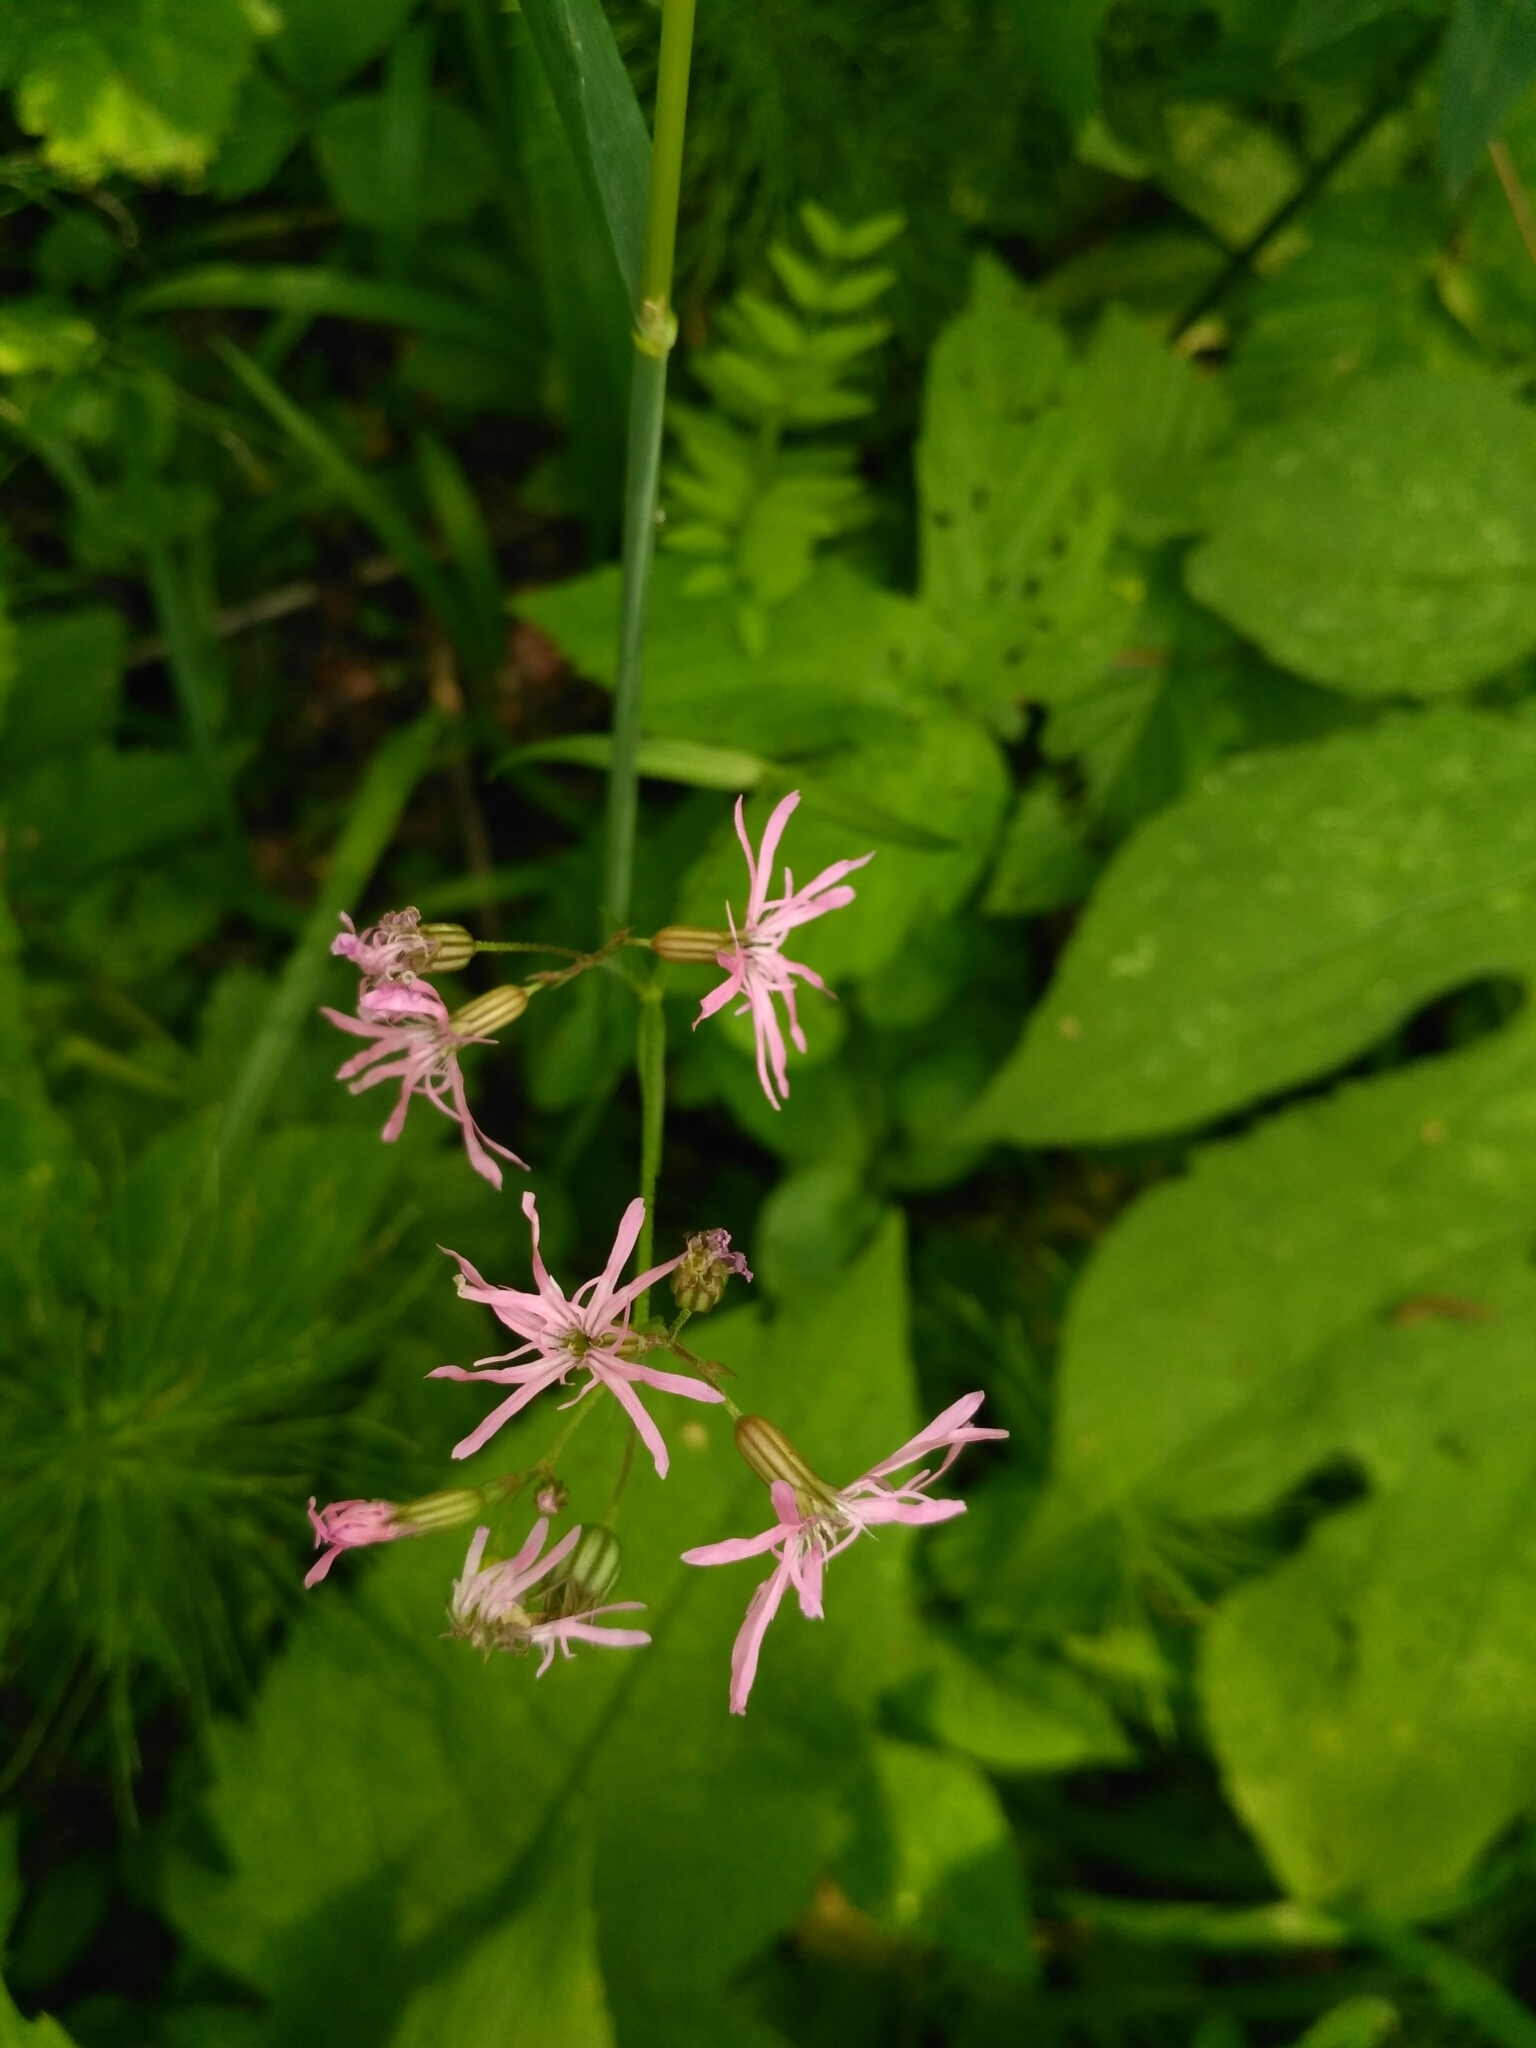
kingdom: Plantae
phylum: Tracheophyta
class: Magnoliopsida
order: Caryophyllales
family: Caryophyllaceae
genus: Silene
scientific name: Silene flos-cuculi
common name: Ragged-robin
